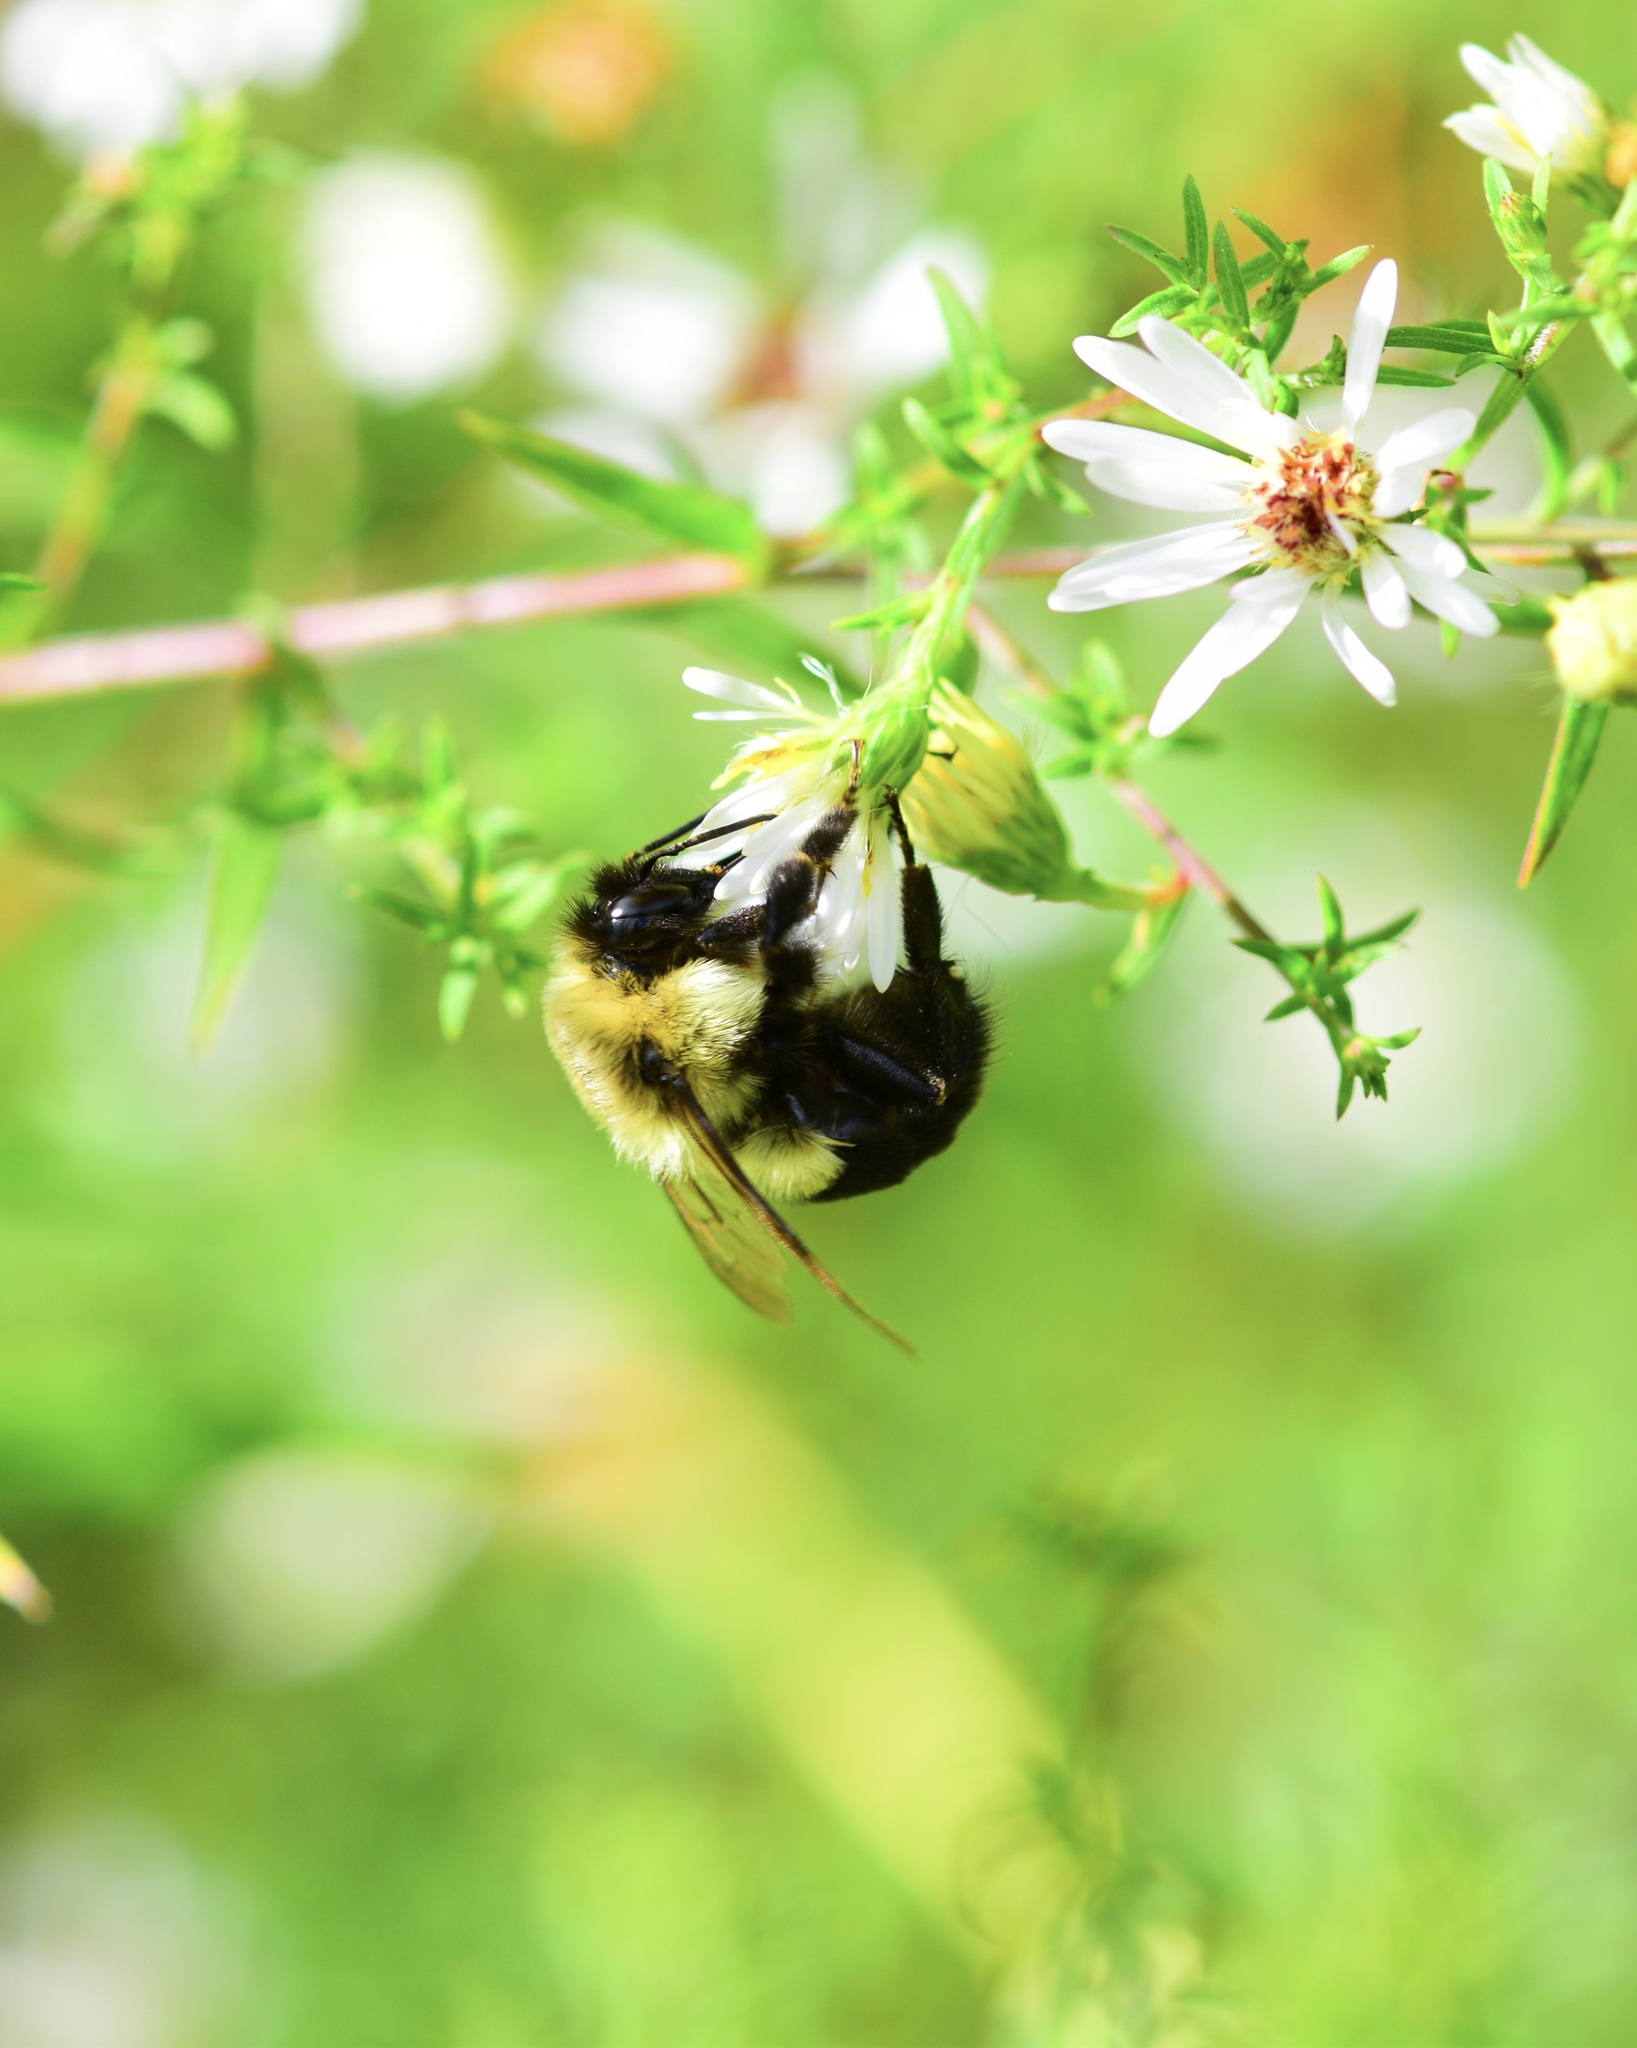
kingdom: Animalia
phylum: Arthropoda
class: Insecta
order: Hymenoptera
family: Apidae
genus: Bombus
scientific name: Bombus impatiens
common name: Common eastern bumble bee
